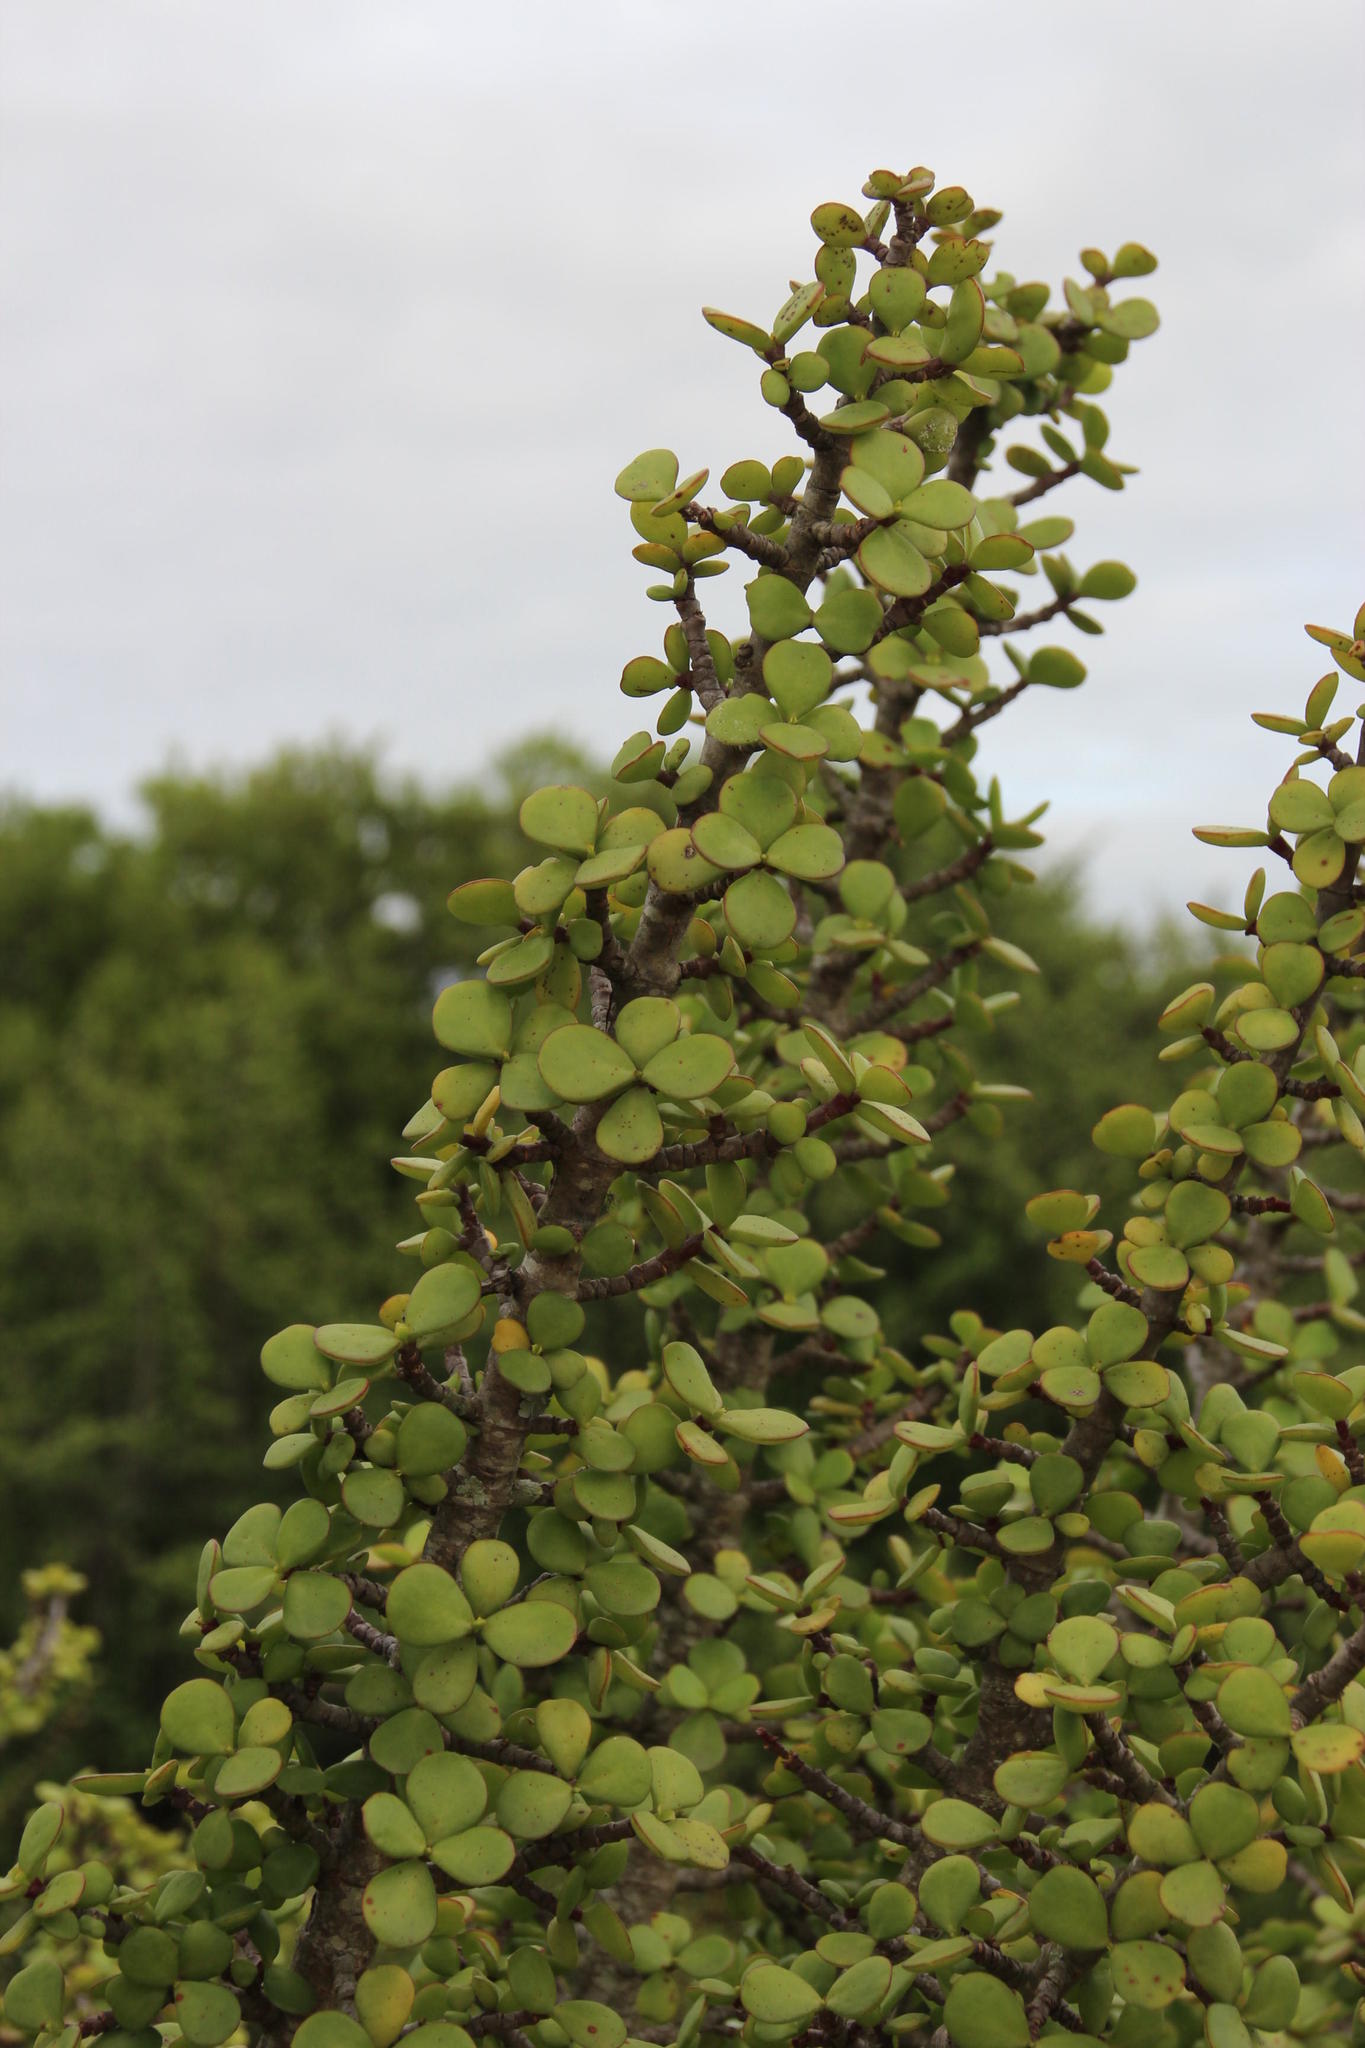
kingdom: Plantae
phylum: Tracheophyta
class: Magnoliopsida
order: Caryophyllales
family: Didiereaceae
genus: Portulacaria
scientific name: Portulacaria afra
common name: Elephant-bush
